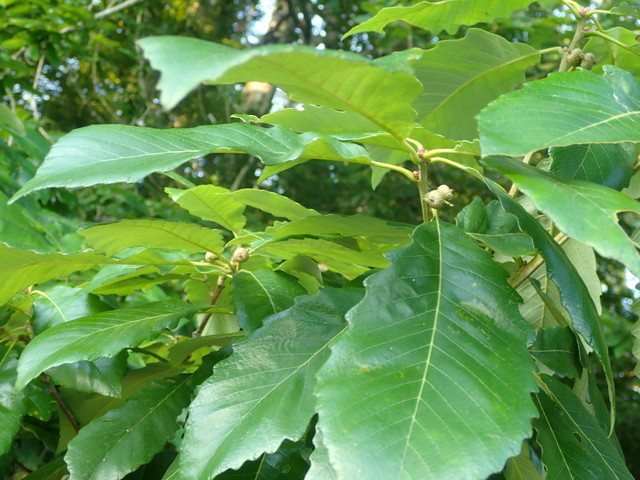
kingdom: Plantae
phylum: Tracheophyta
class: Magnoliopsida
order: Fagales
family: Fagaceae
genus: Quercus
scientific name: Quercus michauxii
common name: Swamp chestnut oak
